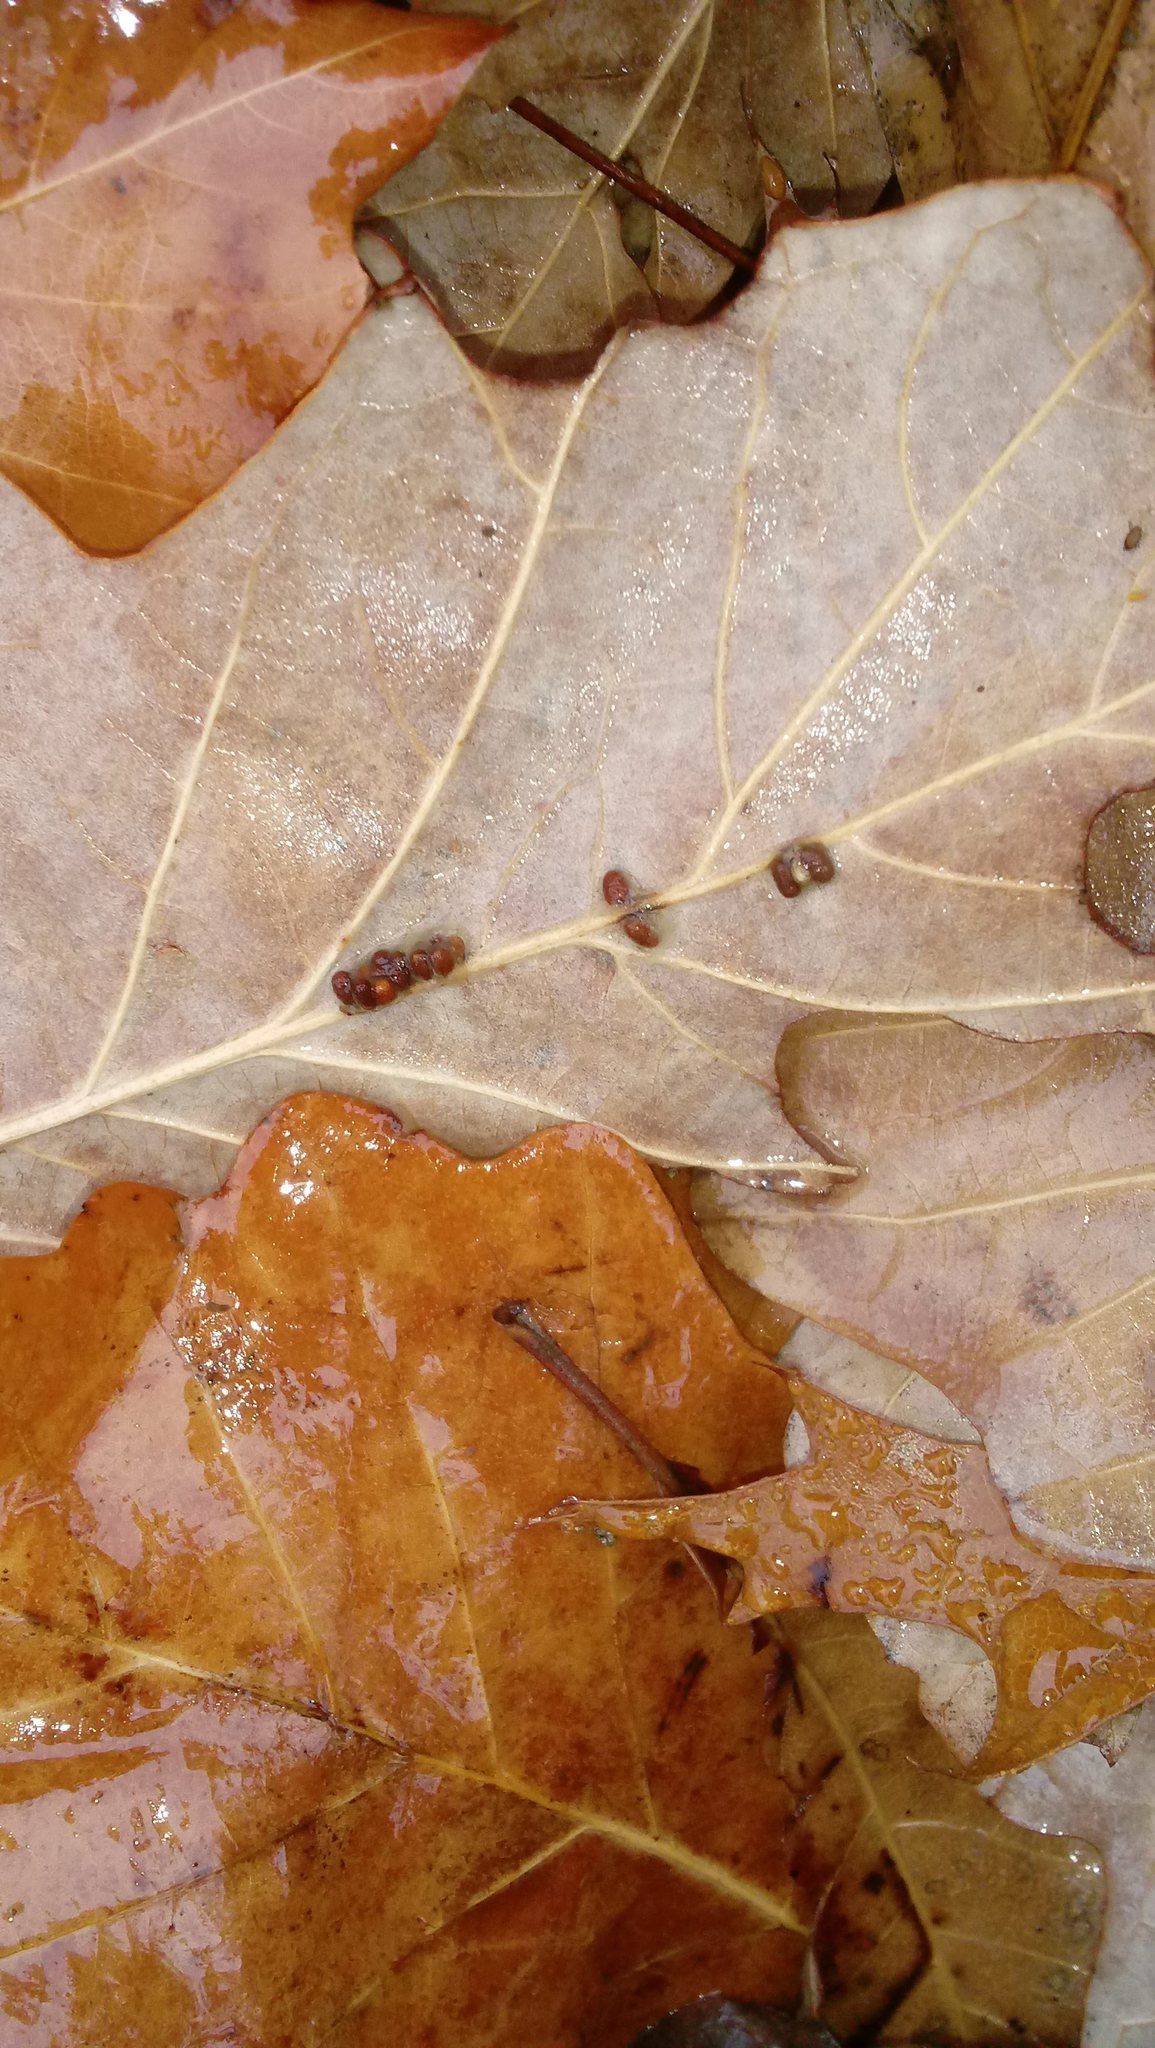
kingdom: Animalia
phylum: Arthropoda
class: Insecta
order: Hymenoptera
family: Cynipidae
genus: Andricus
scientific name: Andricus Druon ignotum
